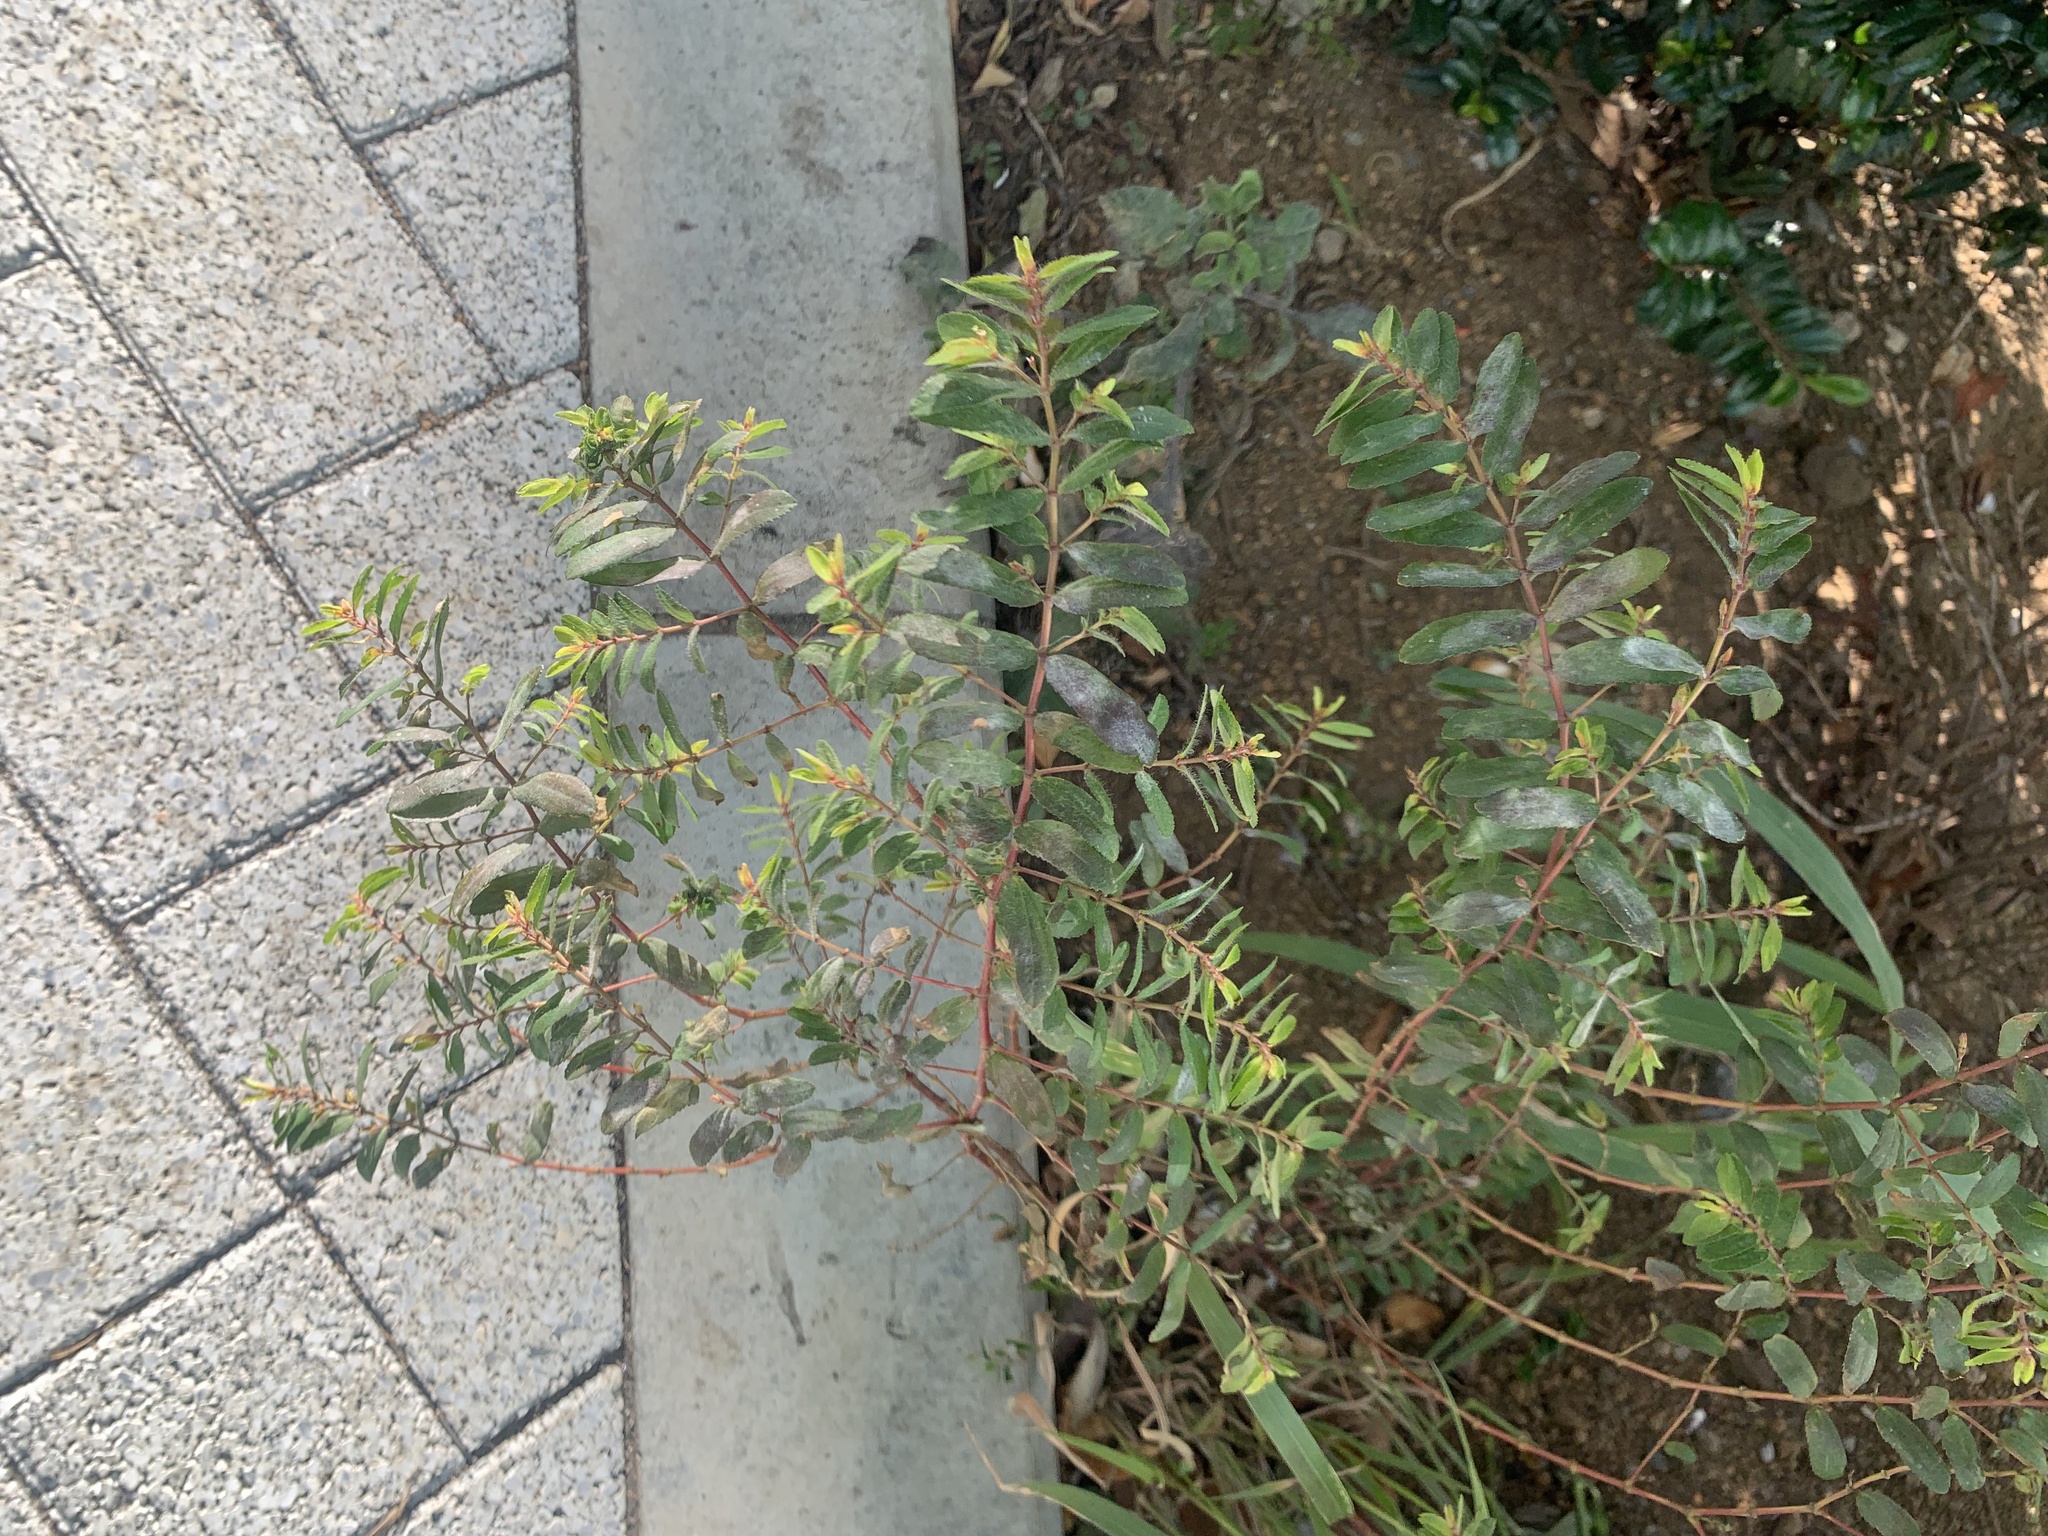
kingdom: Plantae
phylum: Tracheophyta
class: Magnoliopsida
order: Malpighiales
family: Euphorbiaceae
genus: Euphorbia
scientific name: Euphorbia nutans
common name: Eyebane
